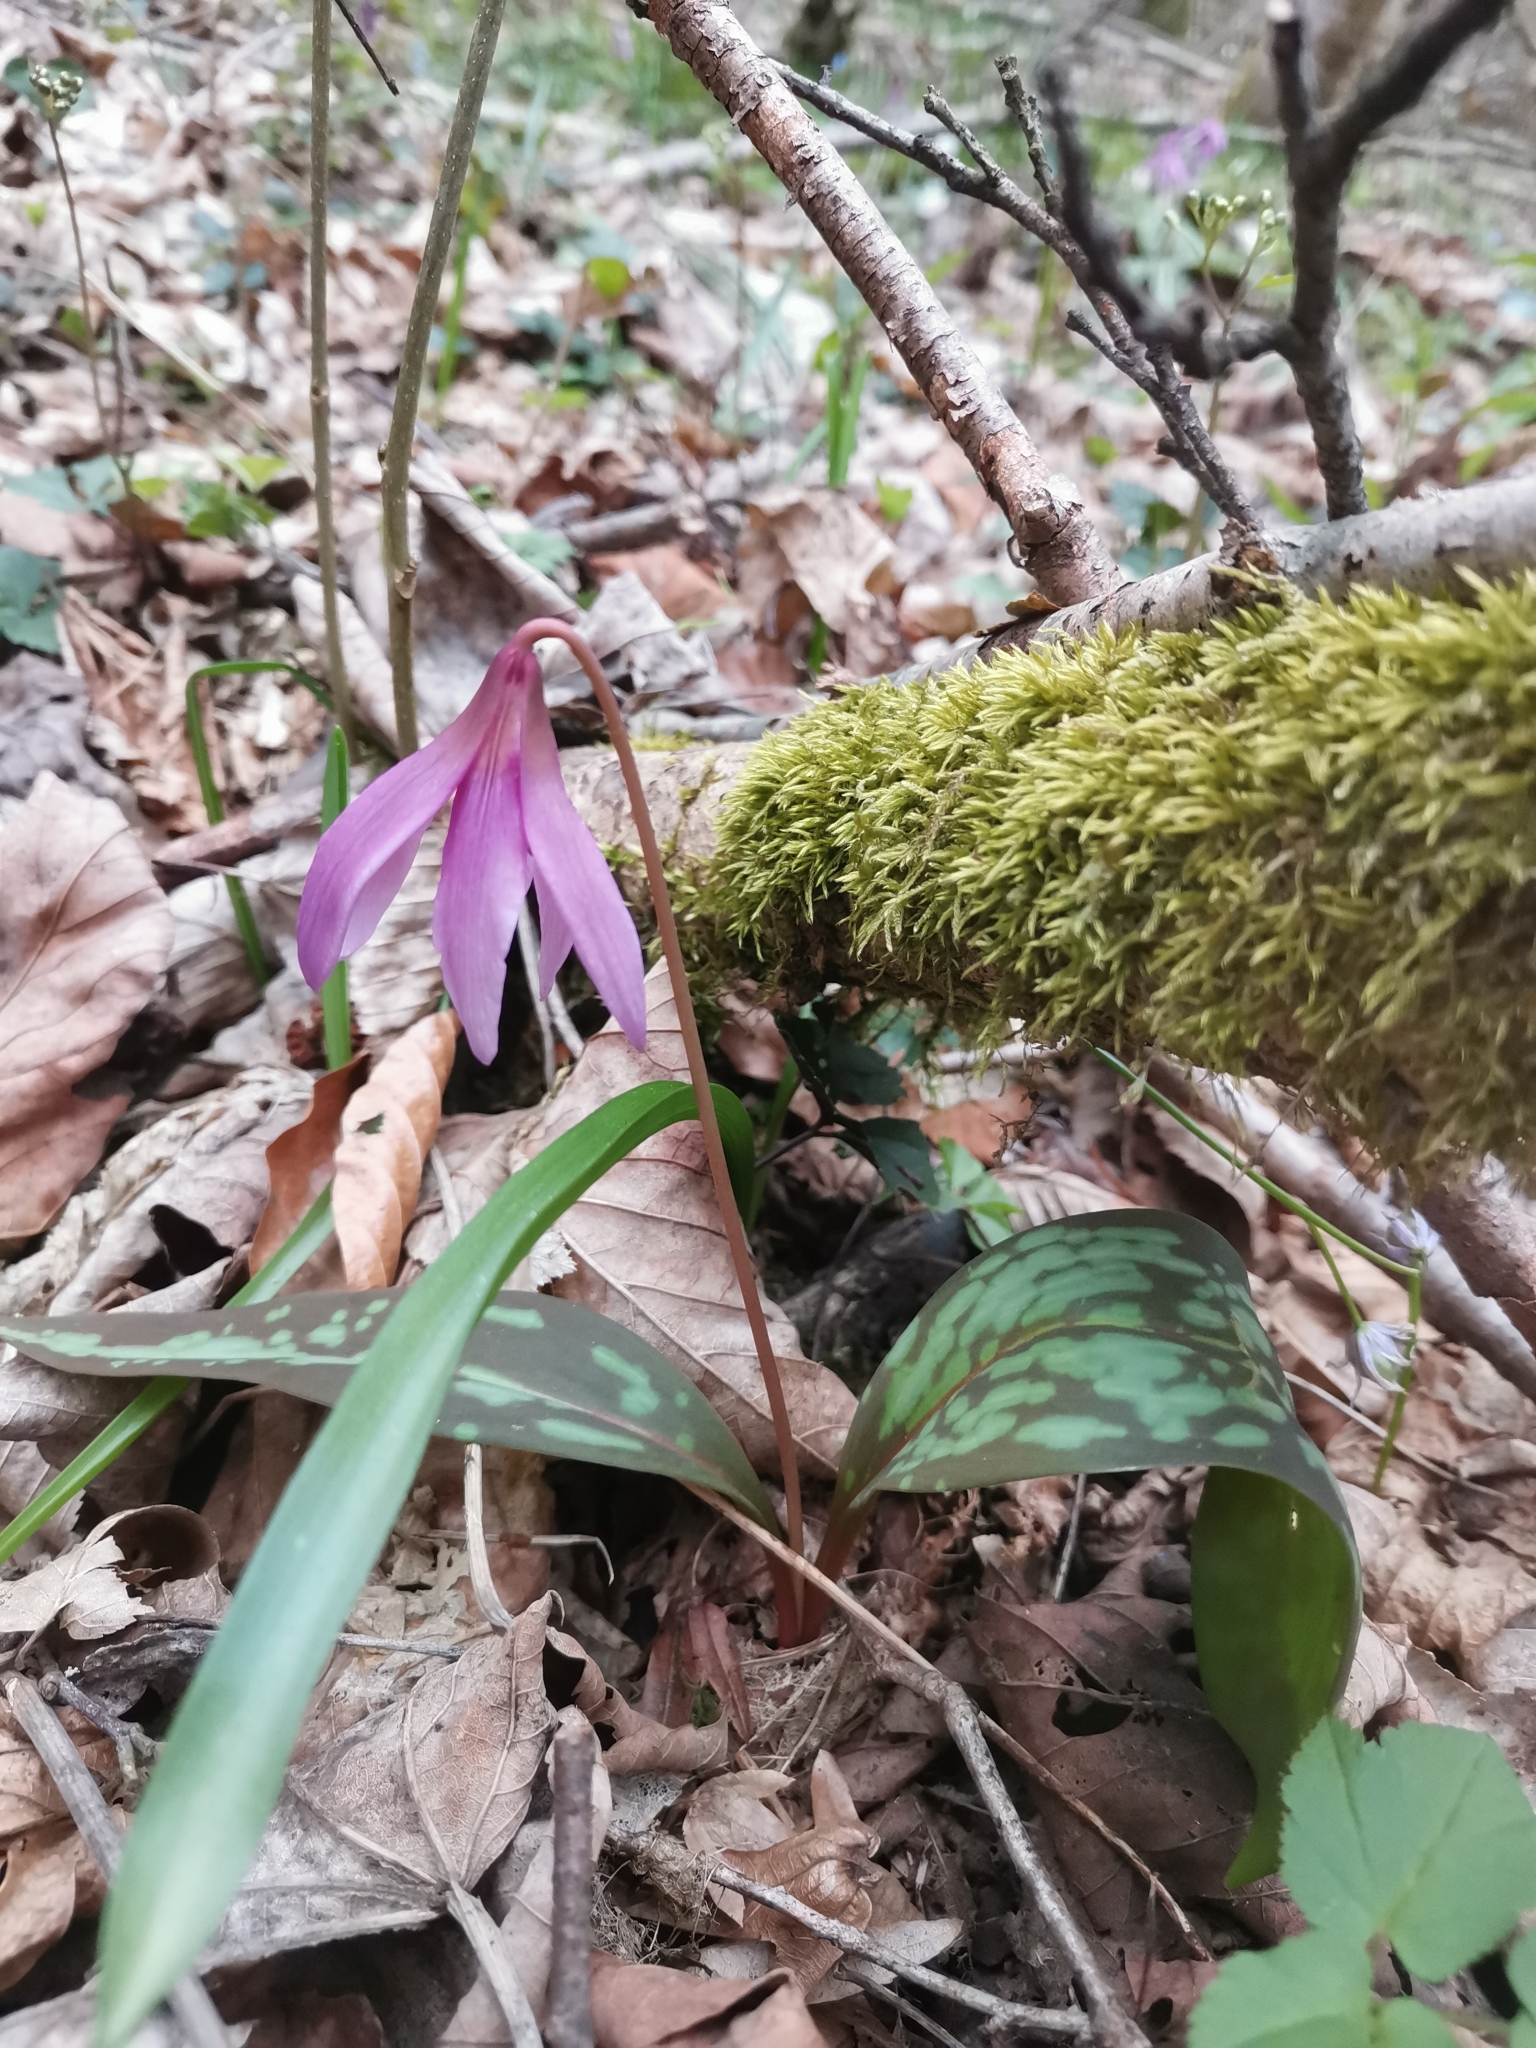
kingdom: Plantae
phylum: Tracheophyta
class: Liliopsida
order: Liliales
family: Liliaceae
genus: Erythronium
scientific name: Erythronium dens-canis
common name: Dog's-tooth-violet
